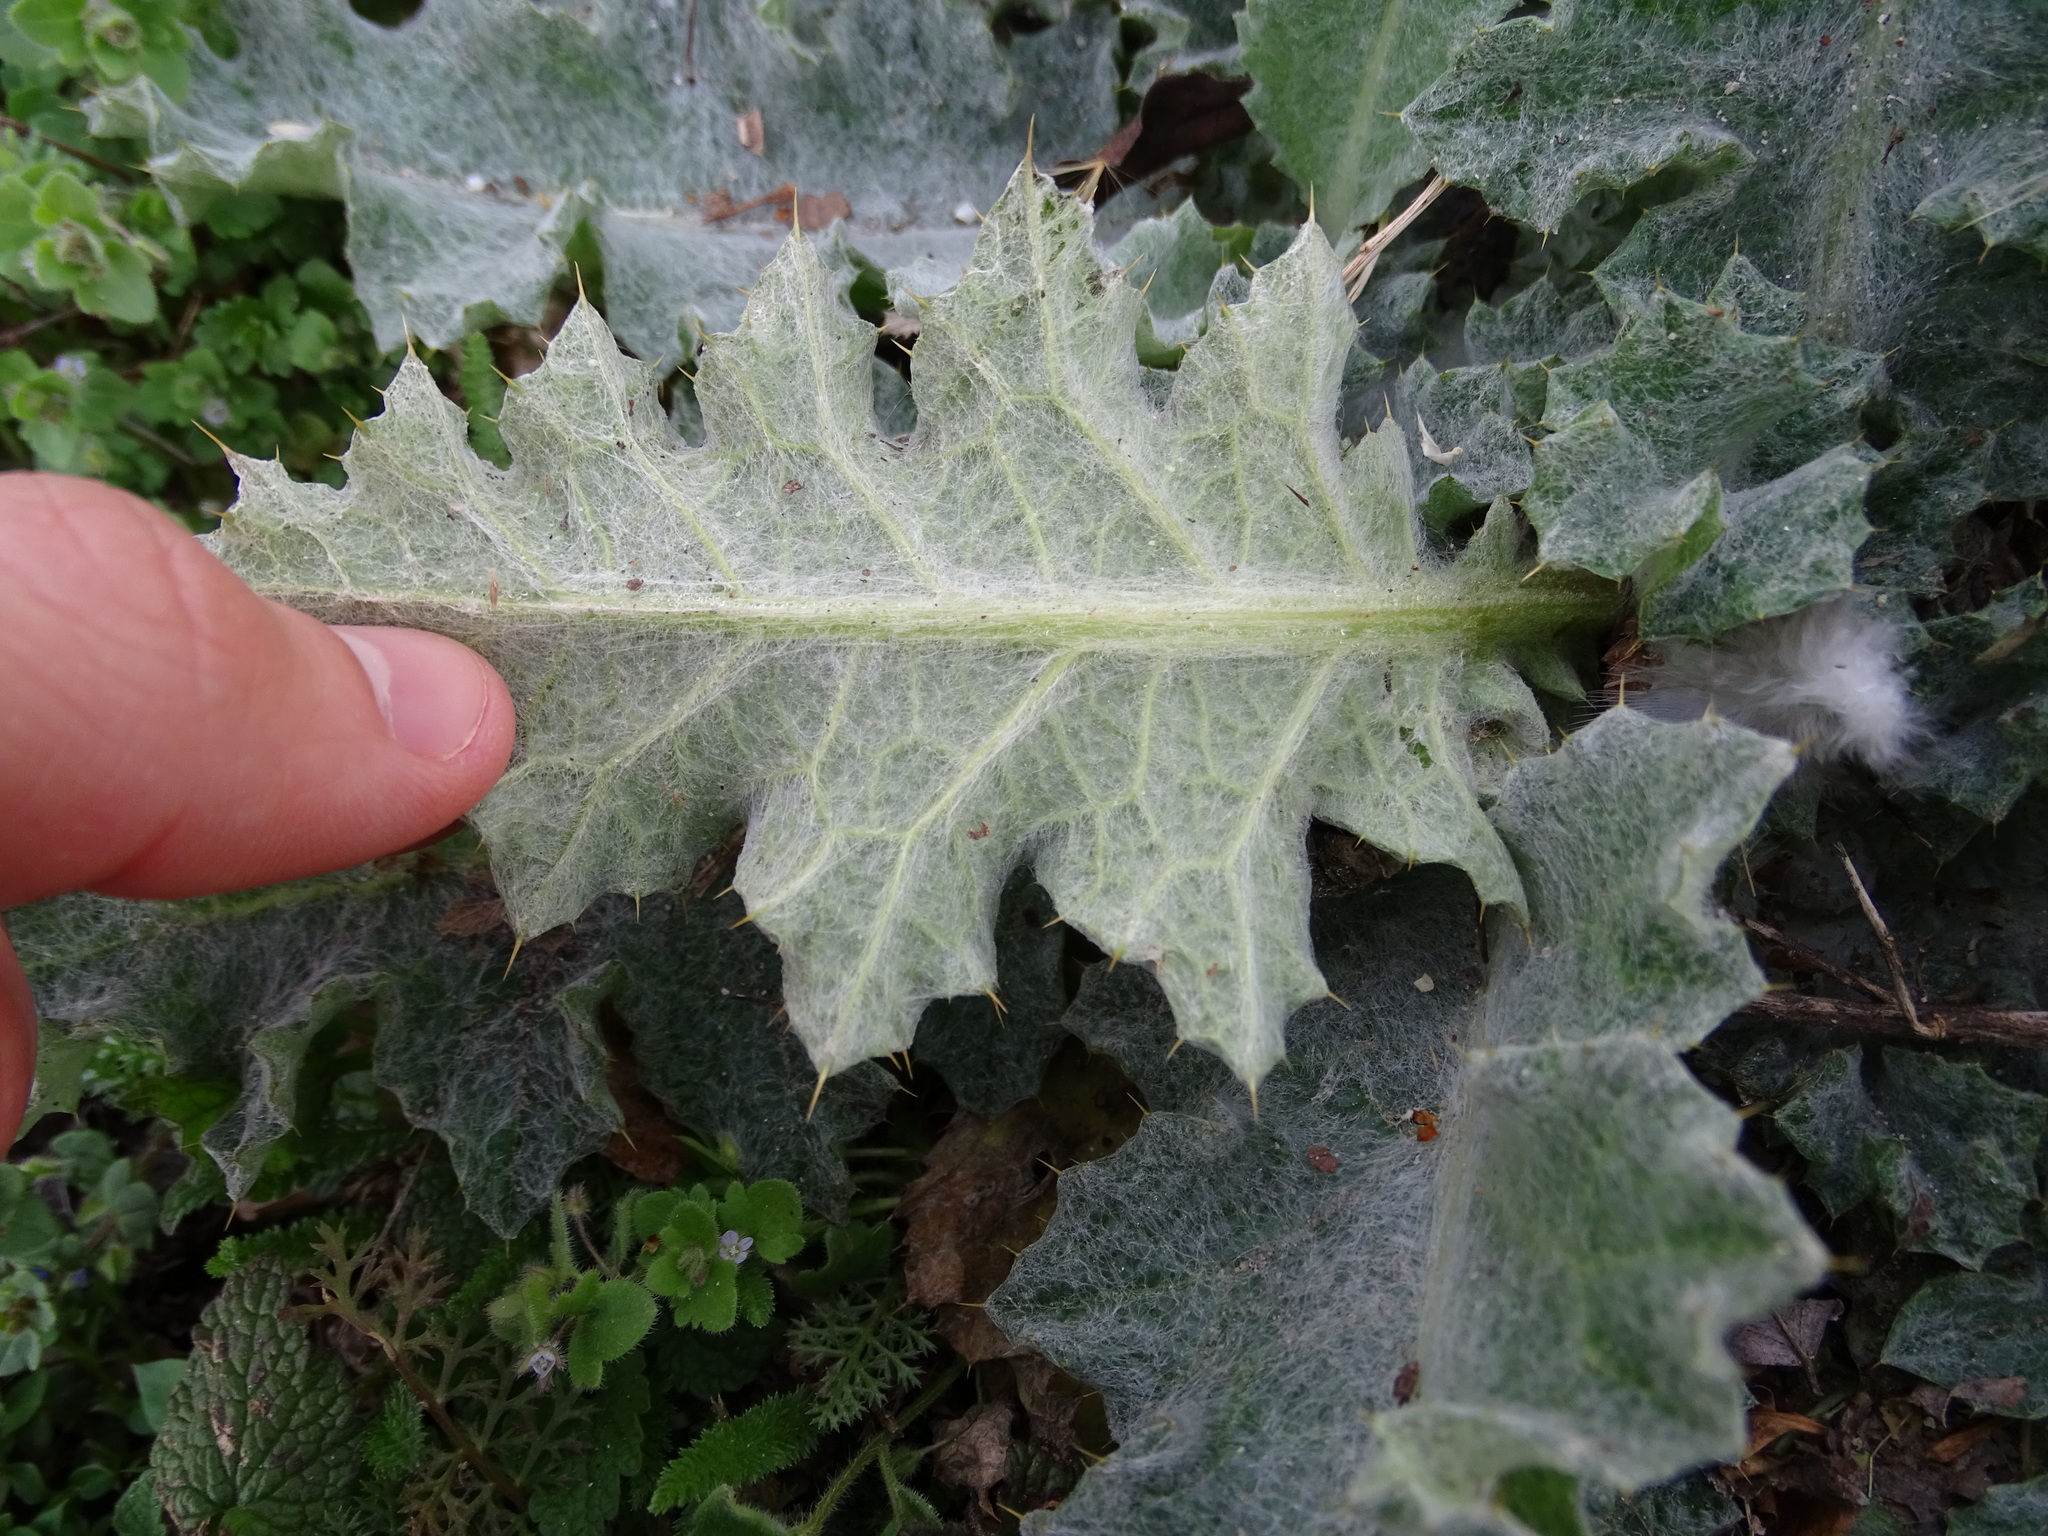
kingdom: Plantae
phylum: Tracheophyta
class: Magnoliopsida
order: Asterales
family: Asteraceae
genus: Onopordum
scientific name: Onopordum acanthium
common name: Scotch thistle
